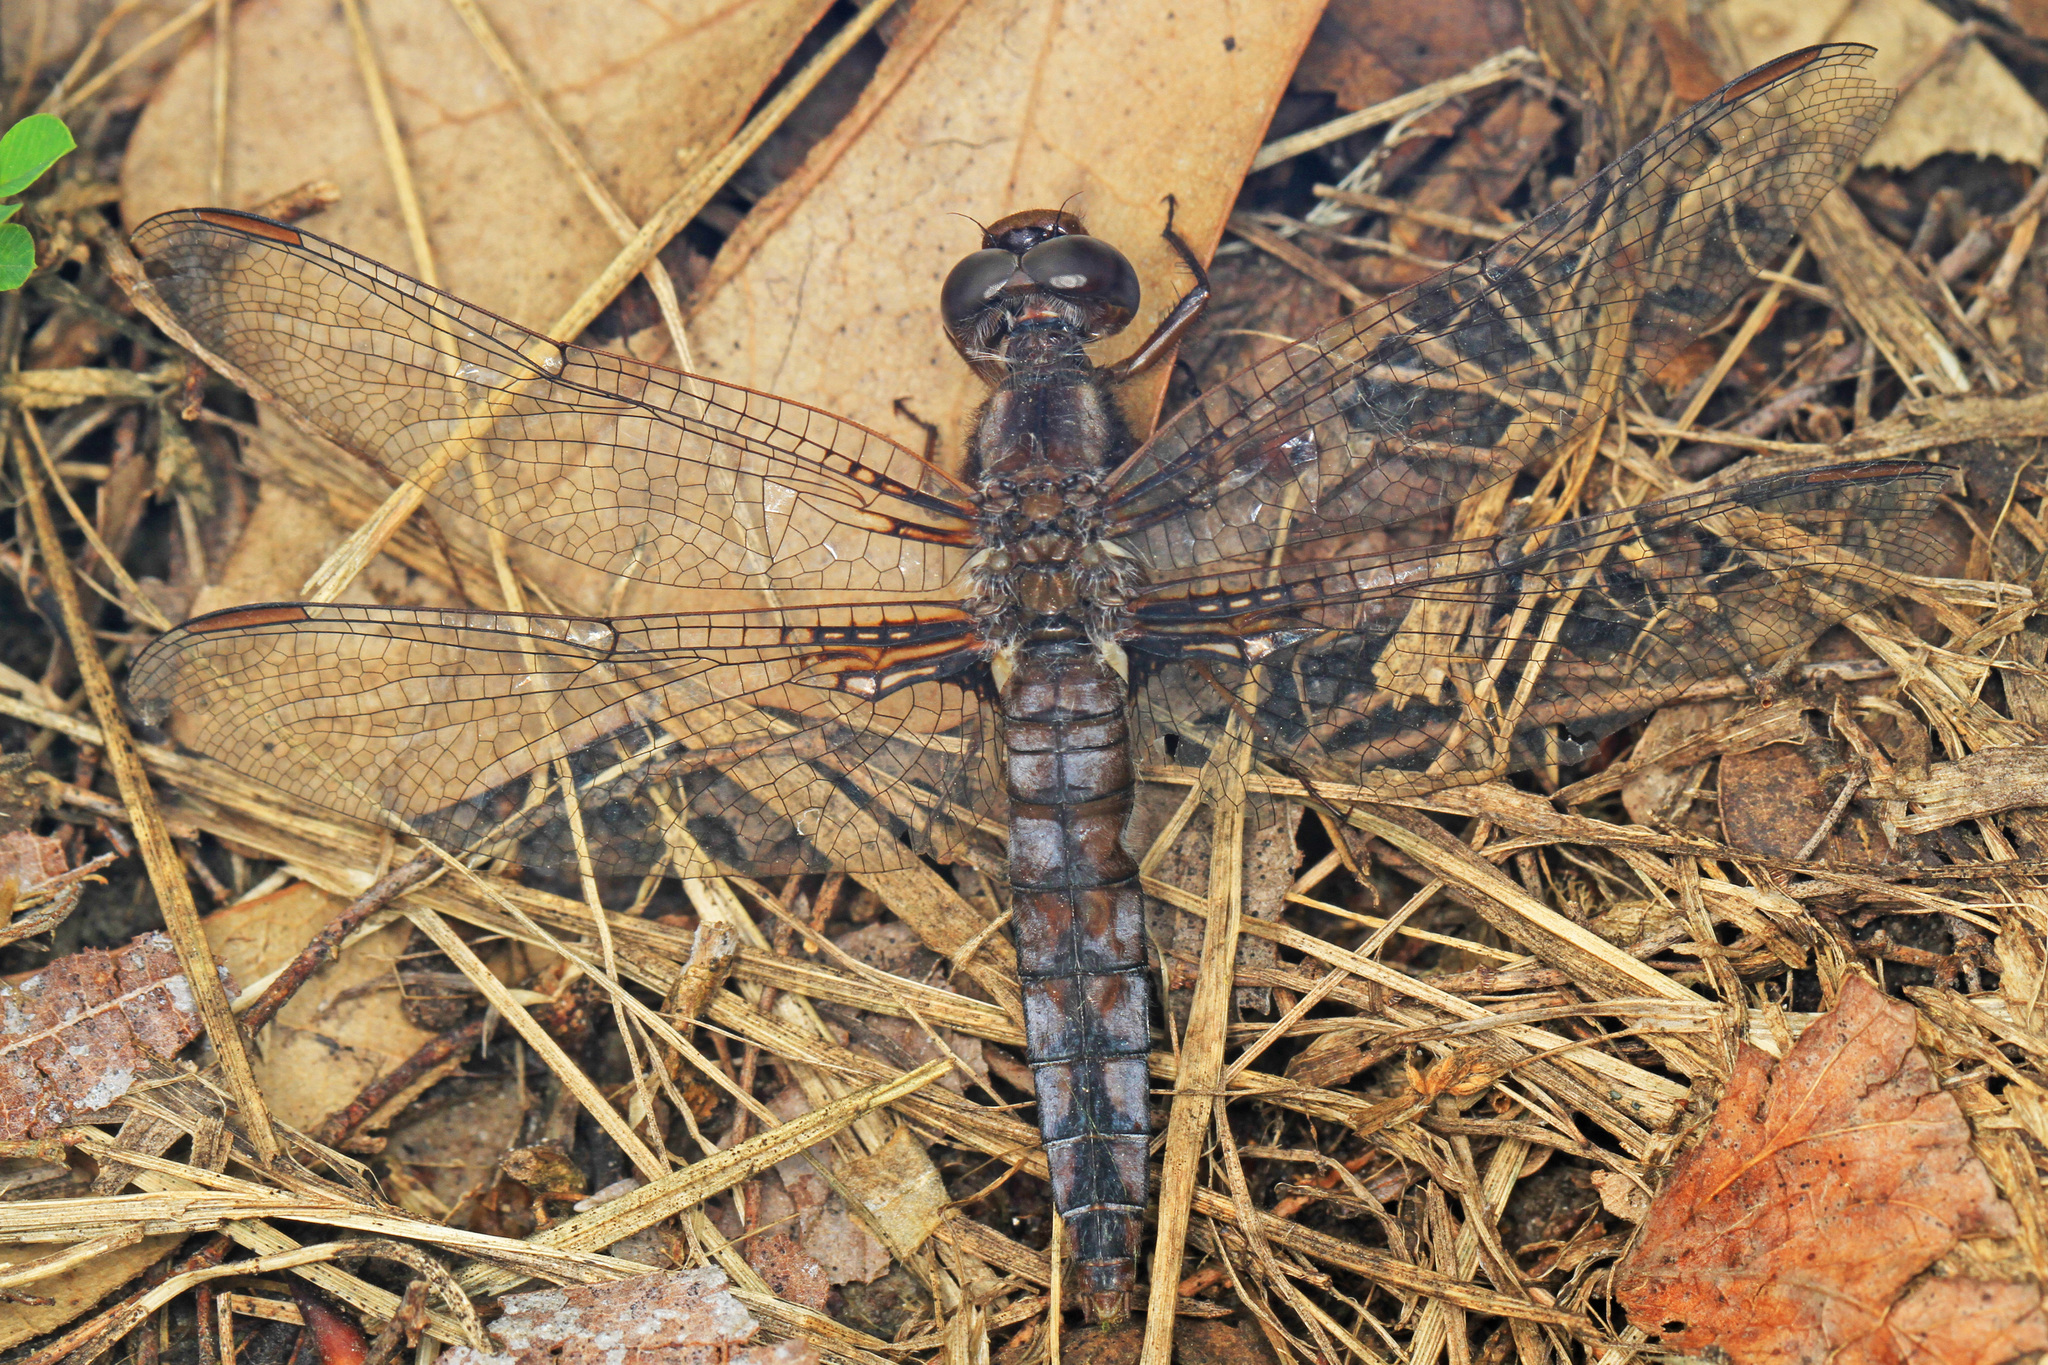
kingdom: Animalia
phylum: Arthropoda
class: Insecta
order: Odonata
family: Libellulidae
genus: Ladona
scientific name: Ladona deplanata
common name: Blue corporal
